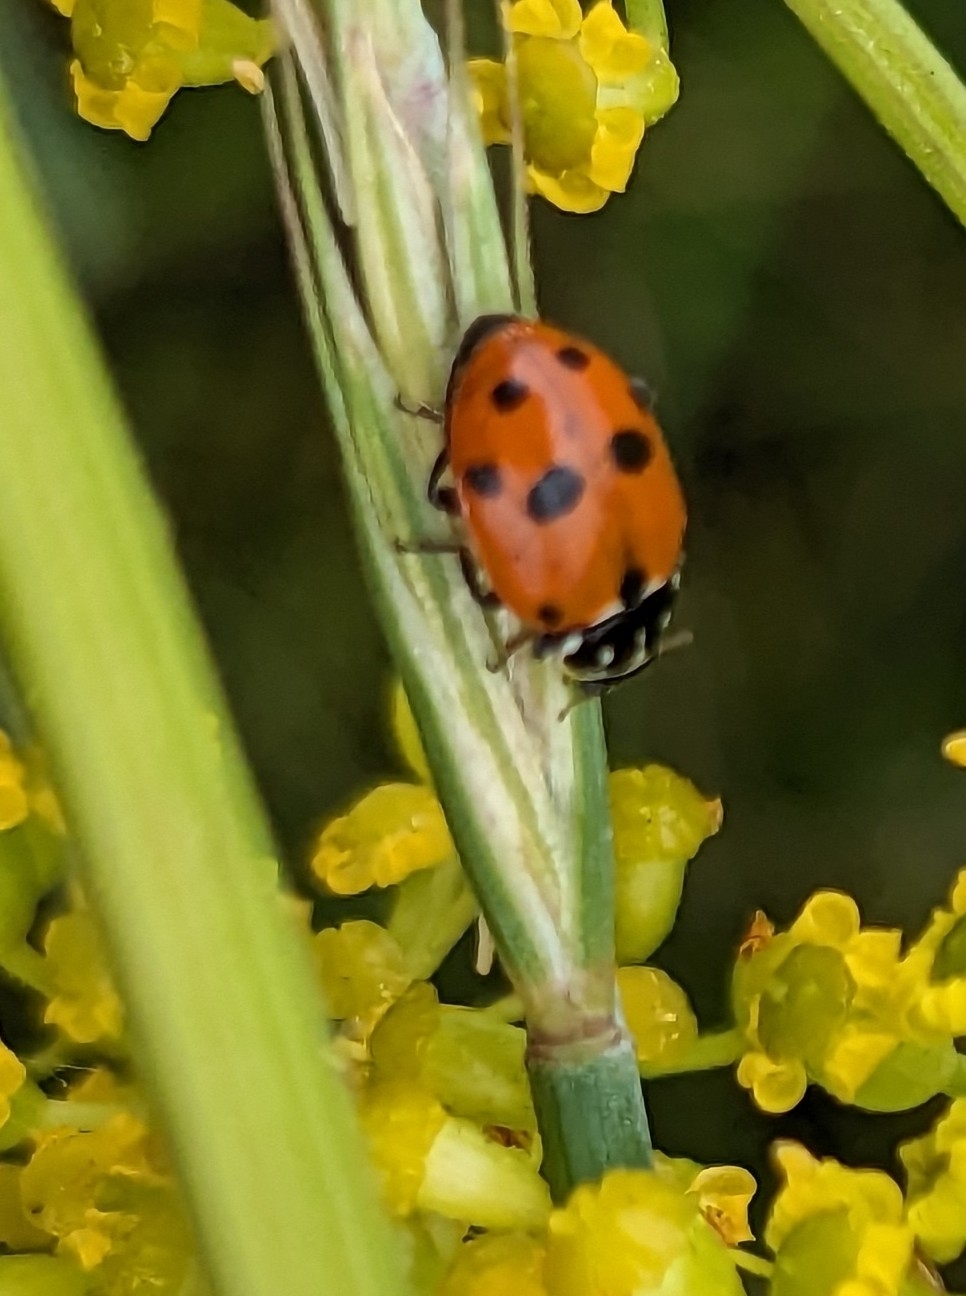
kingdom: Animalia
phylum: Arthropoda
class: Insecta
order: Coleoptera
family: Coccinellidae
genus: Hippodamia
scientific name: Hippodamia variegata
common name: Ladybird beetle
